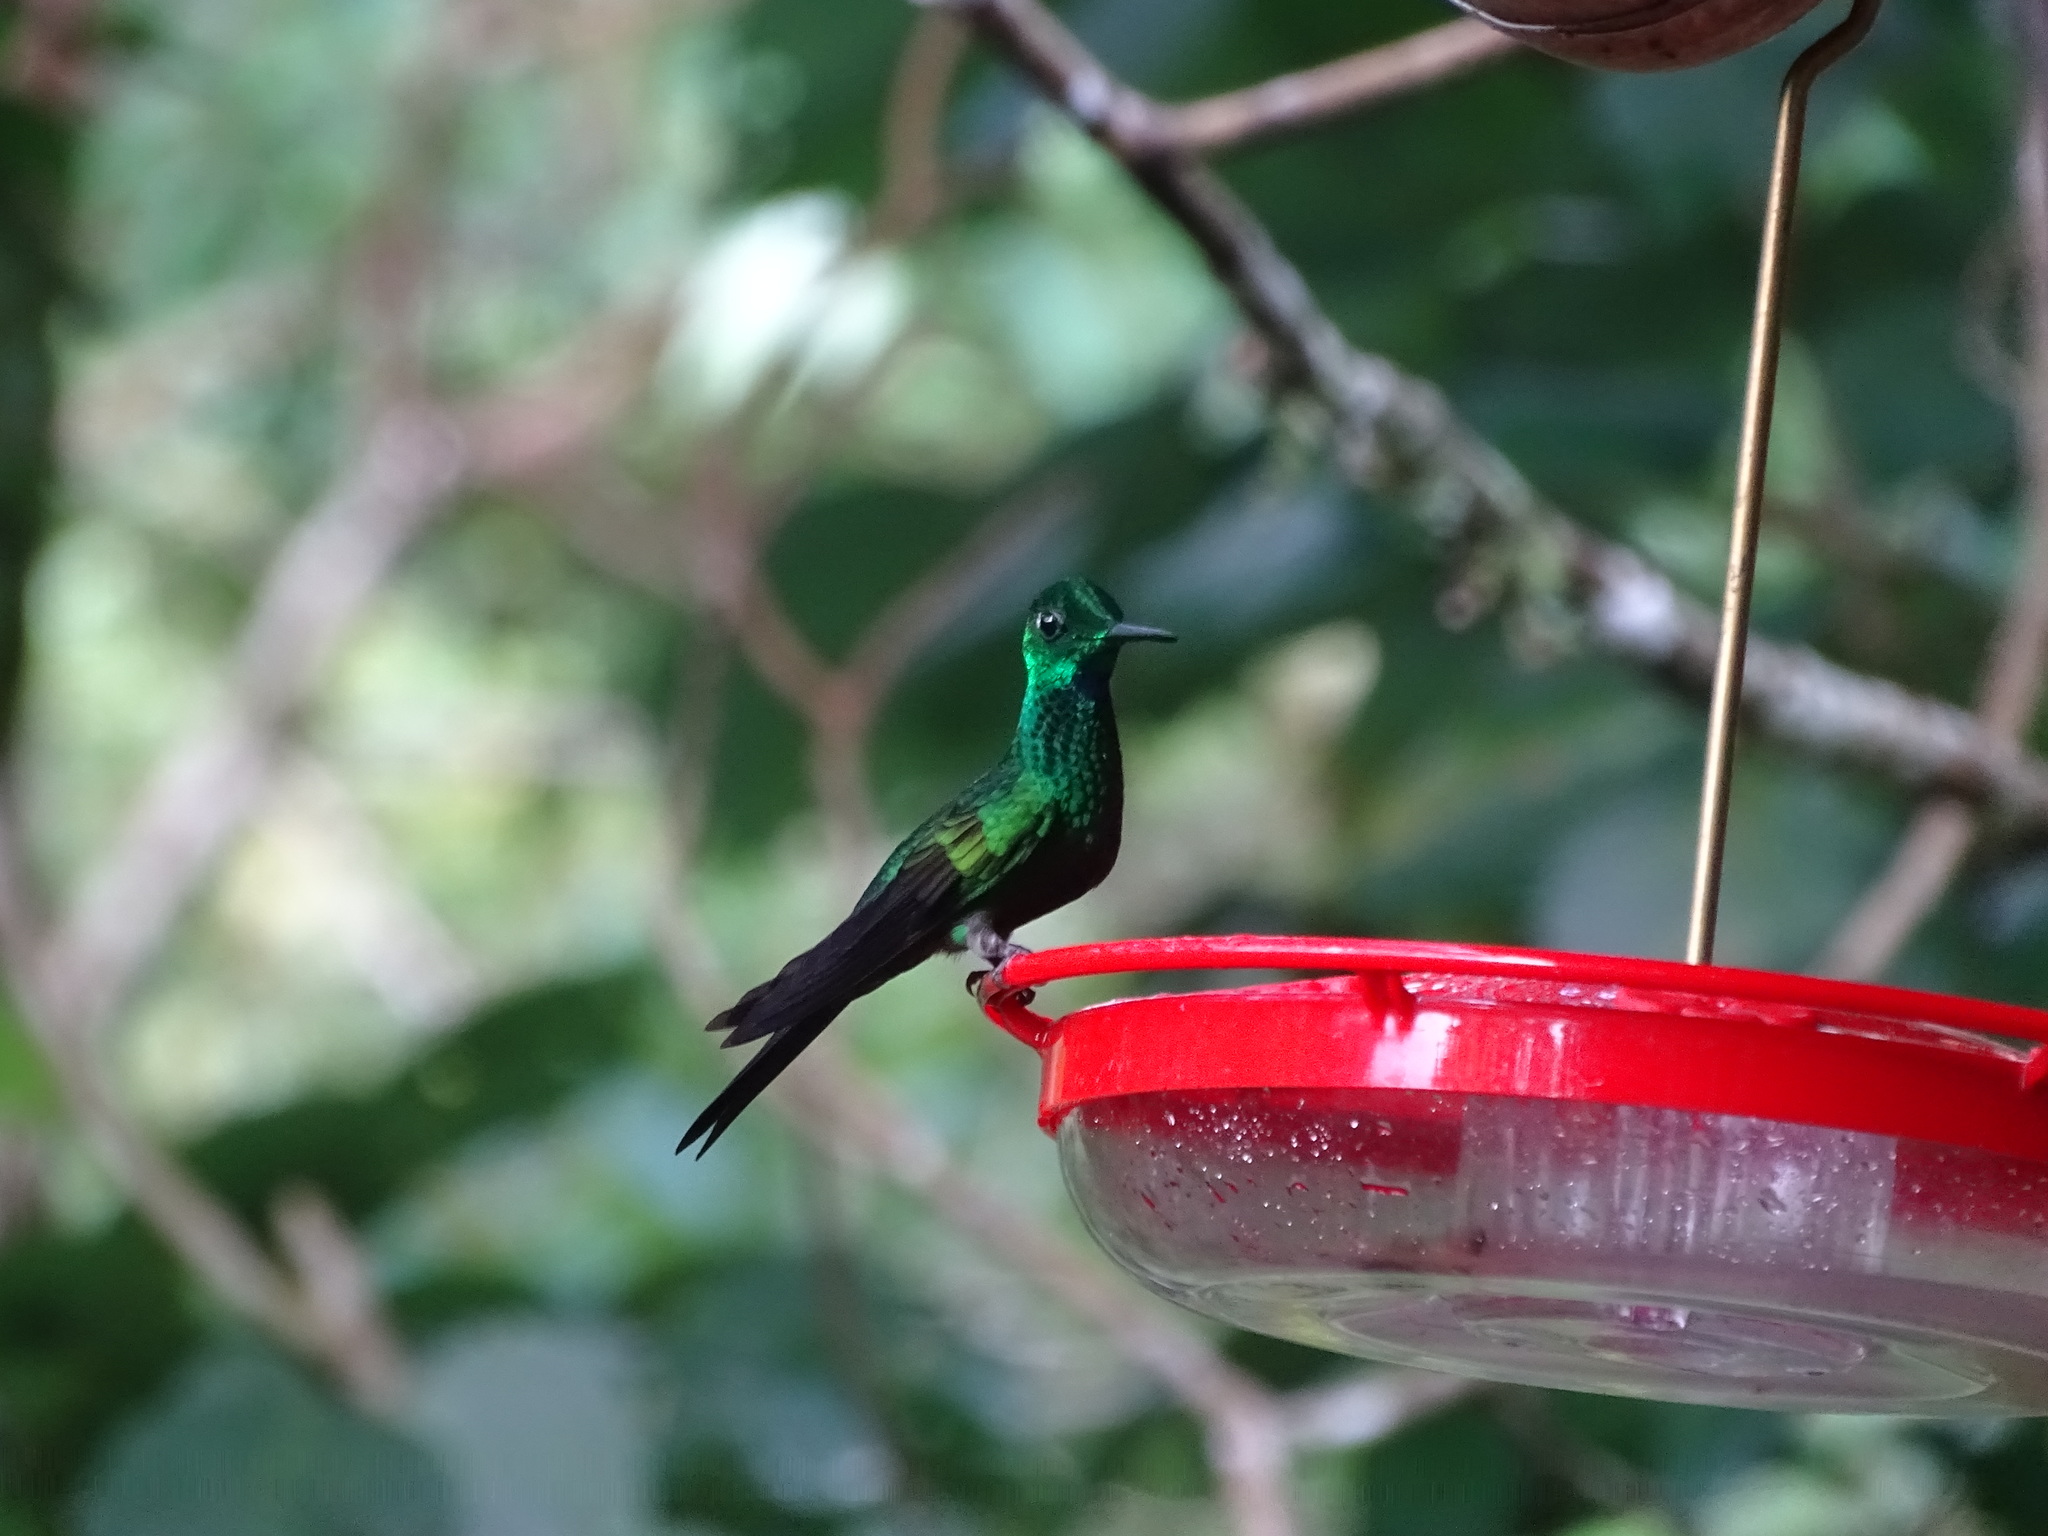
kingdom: Animalia
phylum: Chordata
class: Aves
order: Apodiformes
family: Trochilidae
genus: Heliodoxa
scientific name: Heliodoxa jacula
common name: Green-crowned brilliant
